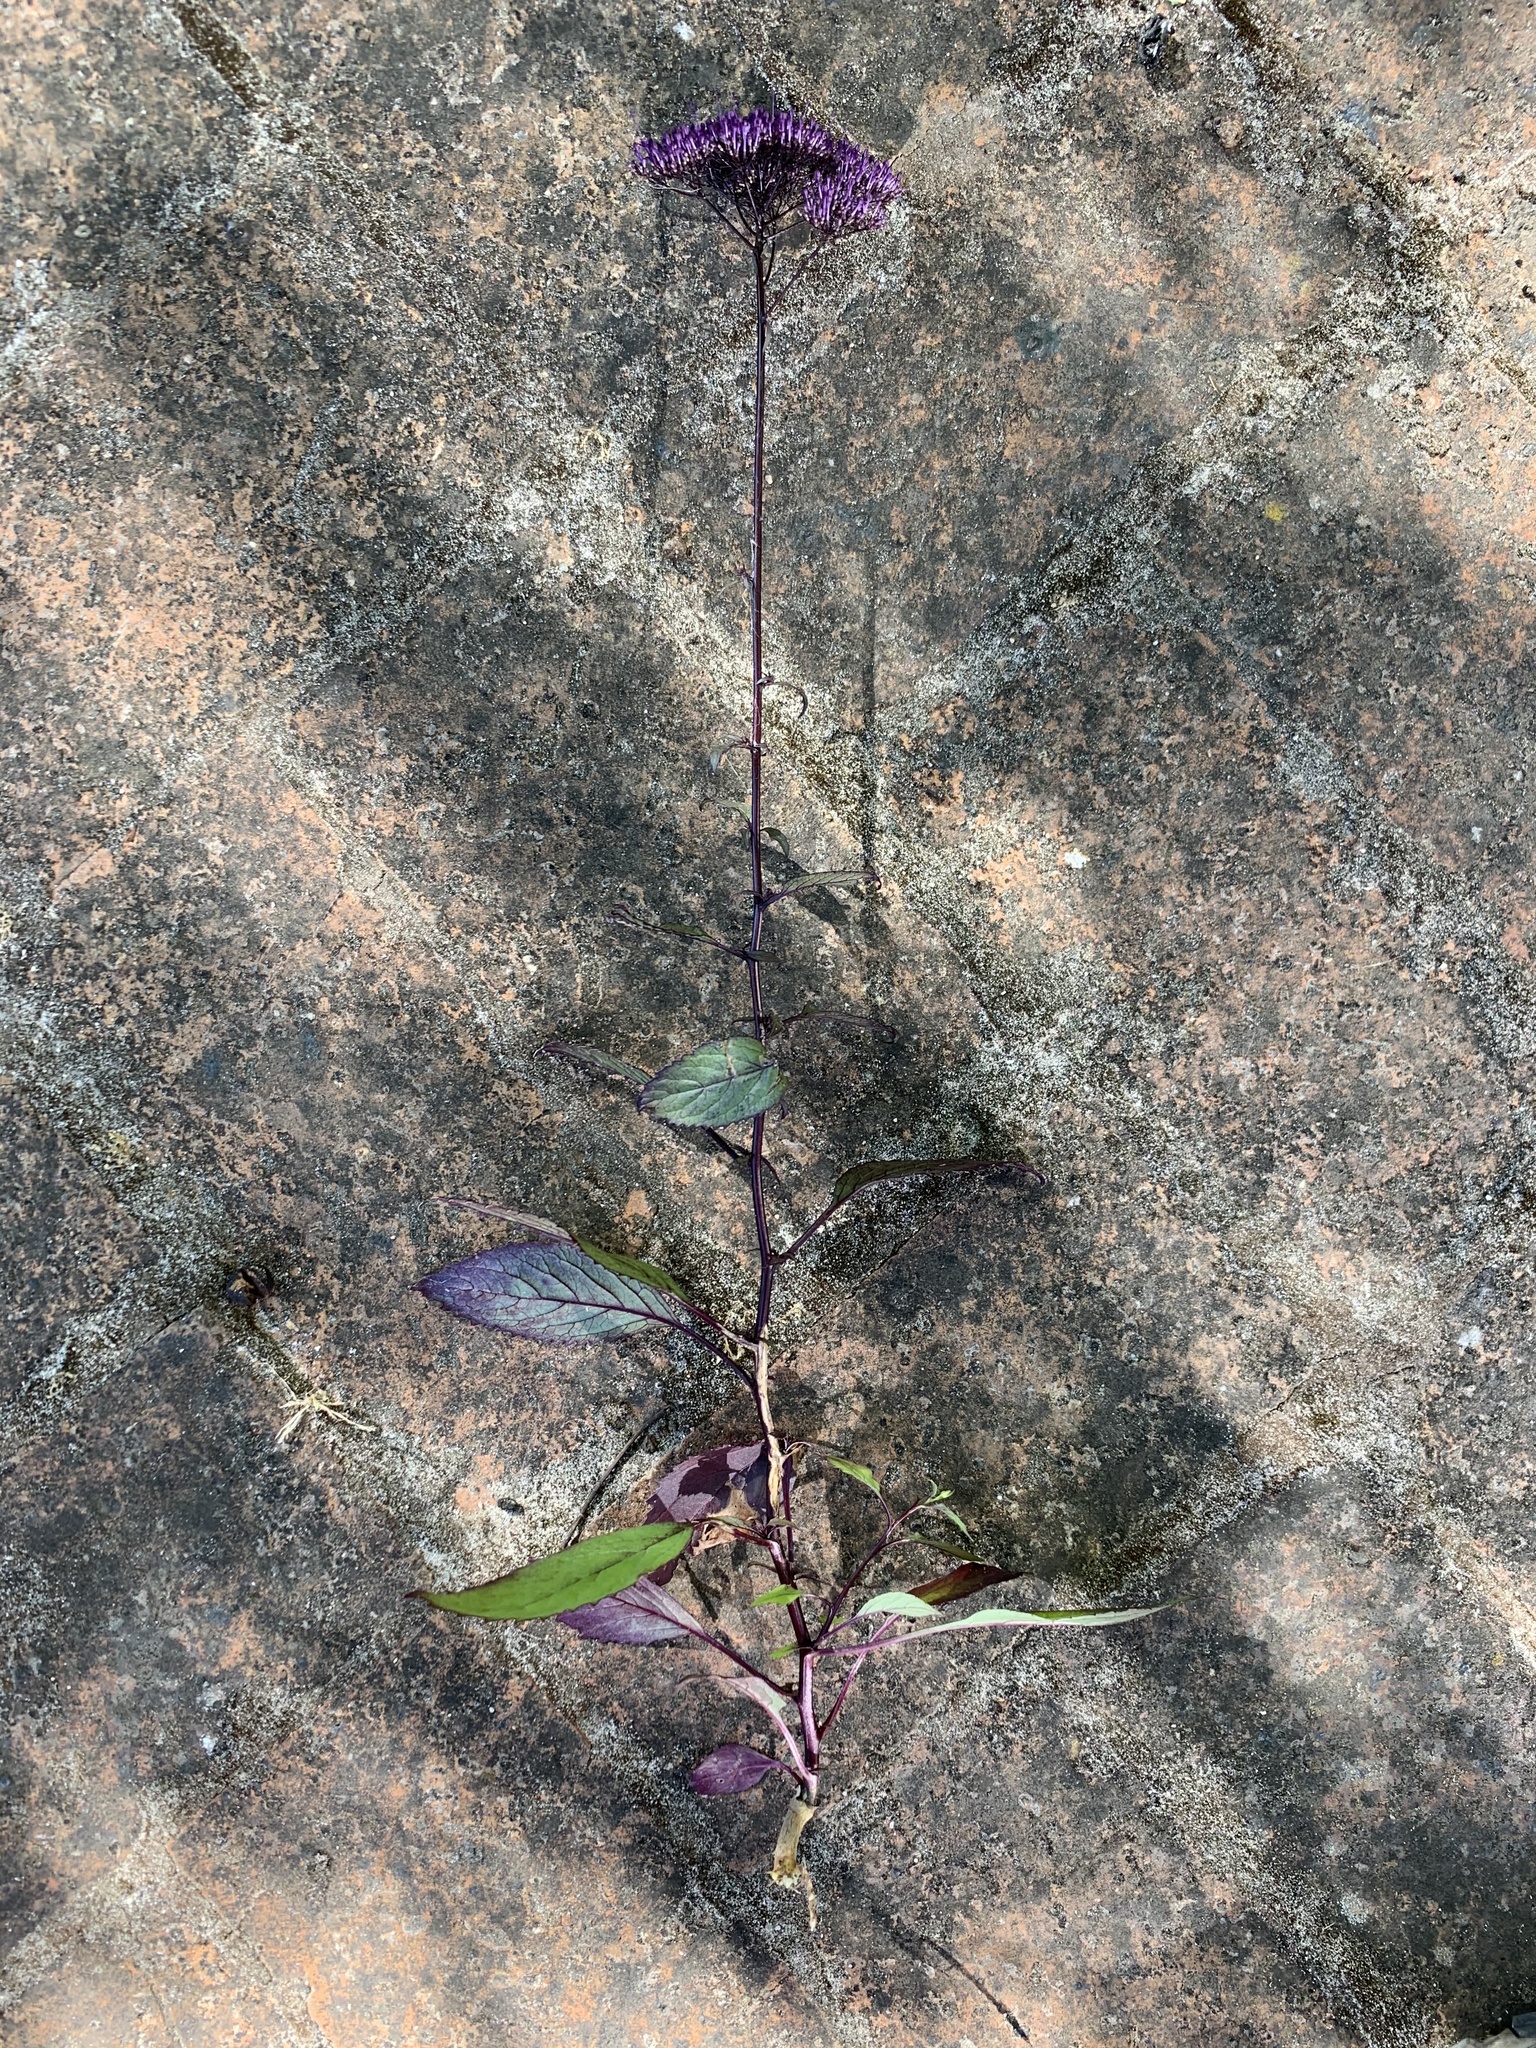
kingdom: Plantae
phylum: Tracheophyta
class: Magnoliopsida
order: Asterales
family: Campanulaceae
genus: Trachelium
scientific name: Trachelium caeruleum
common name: Throatwort
